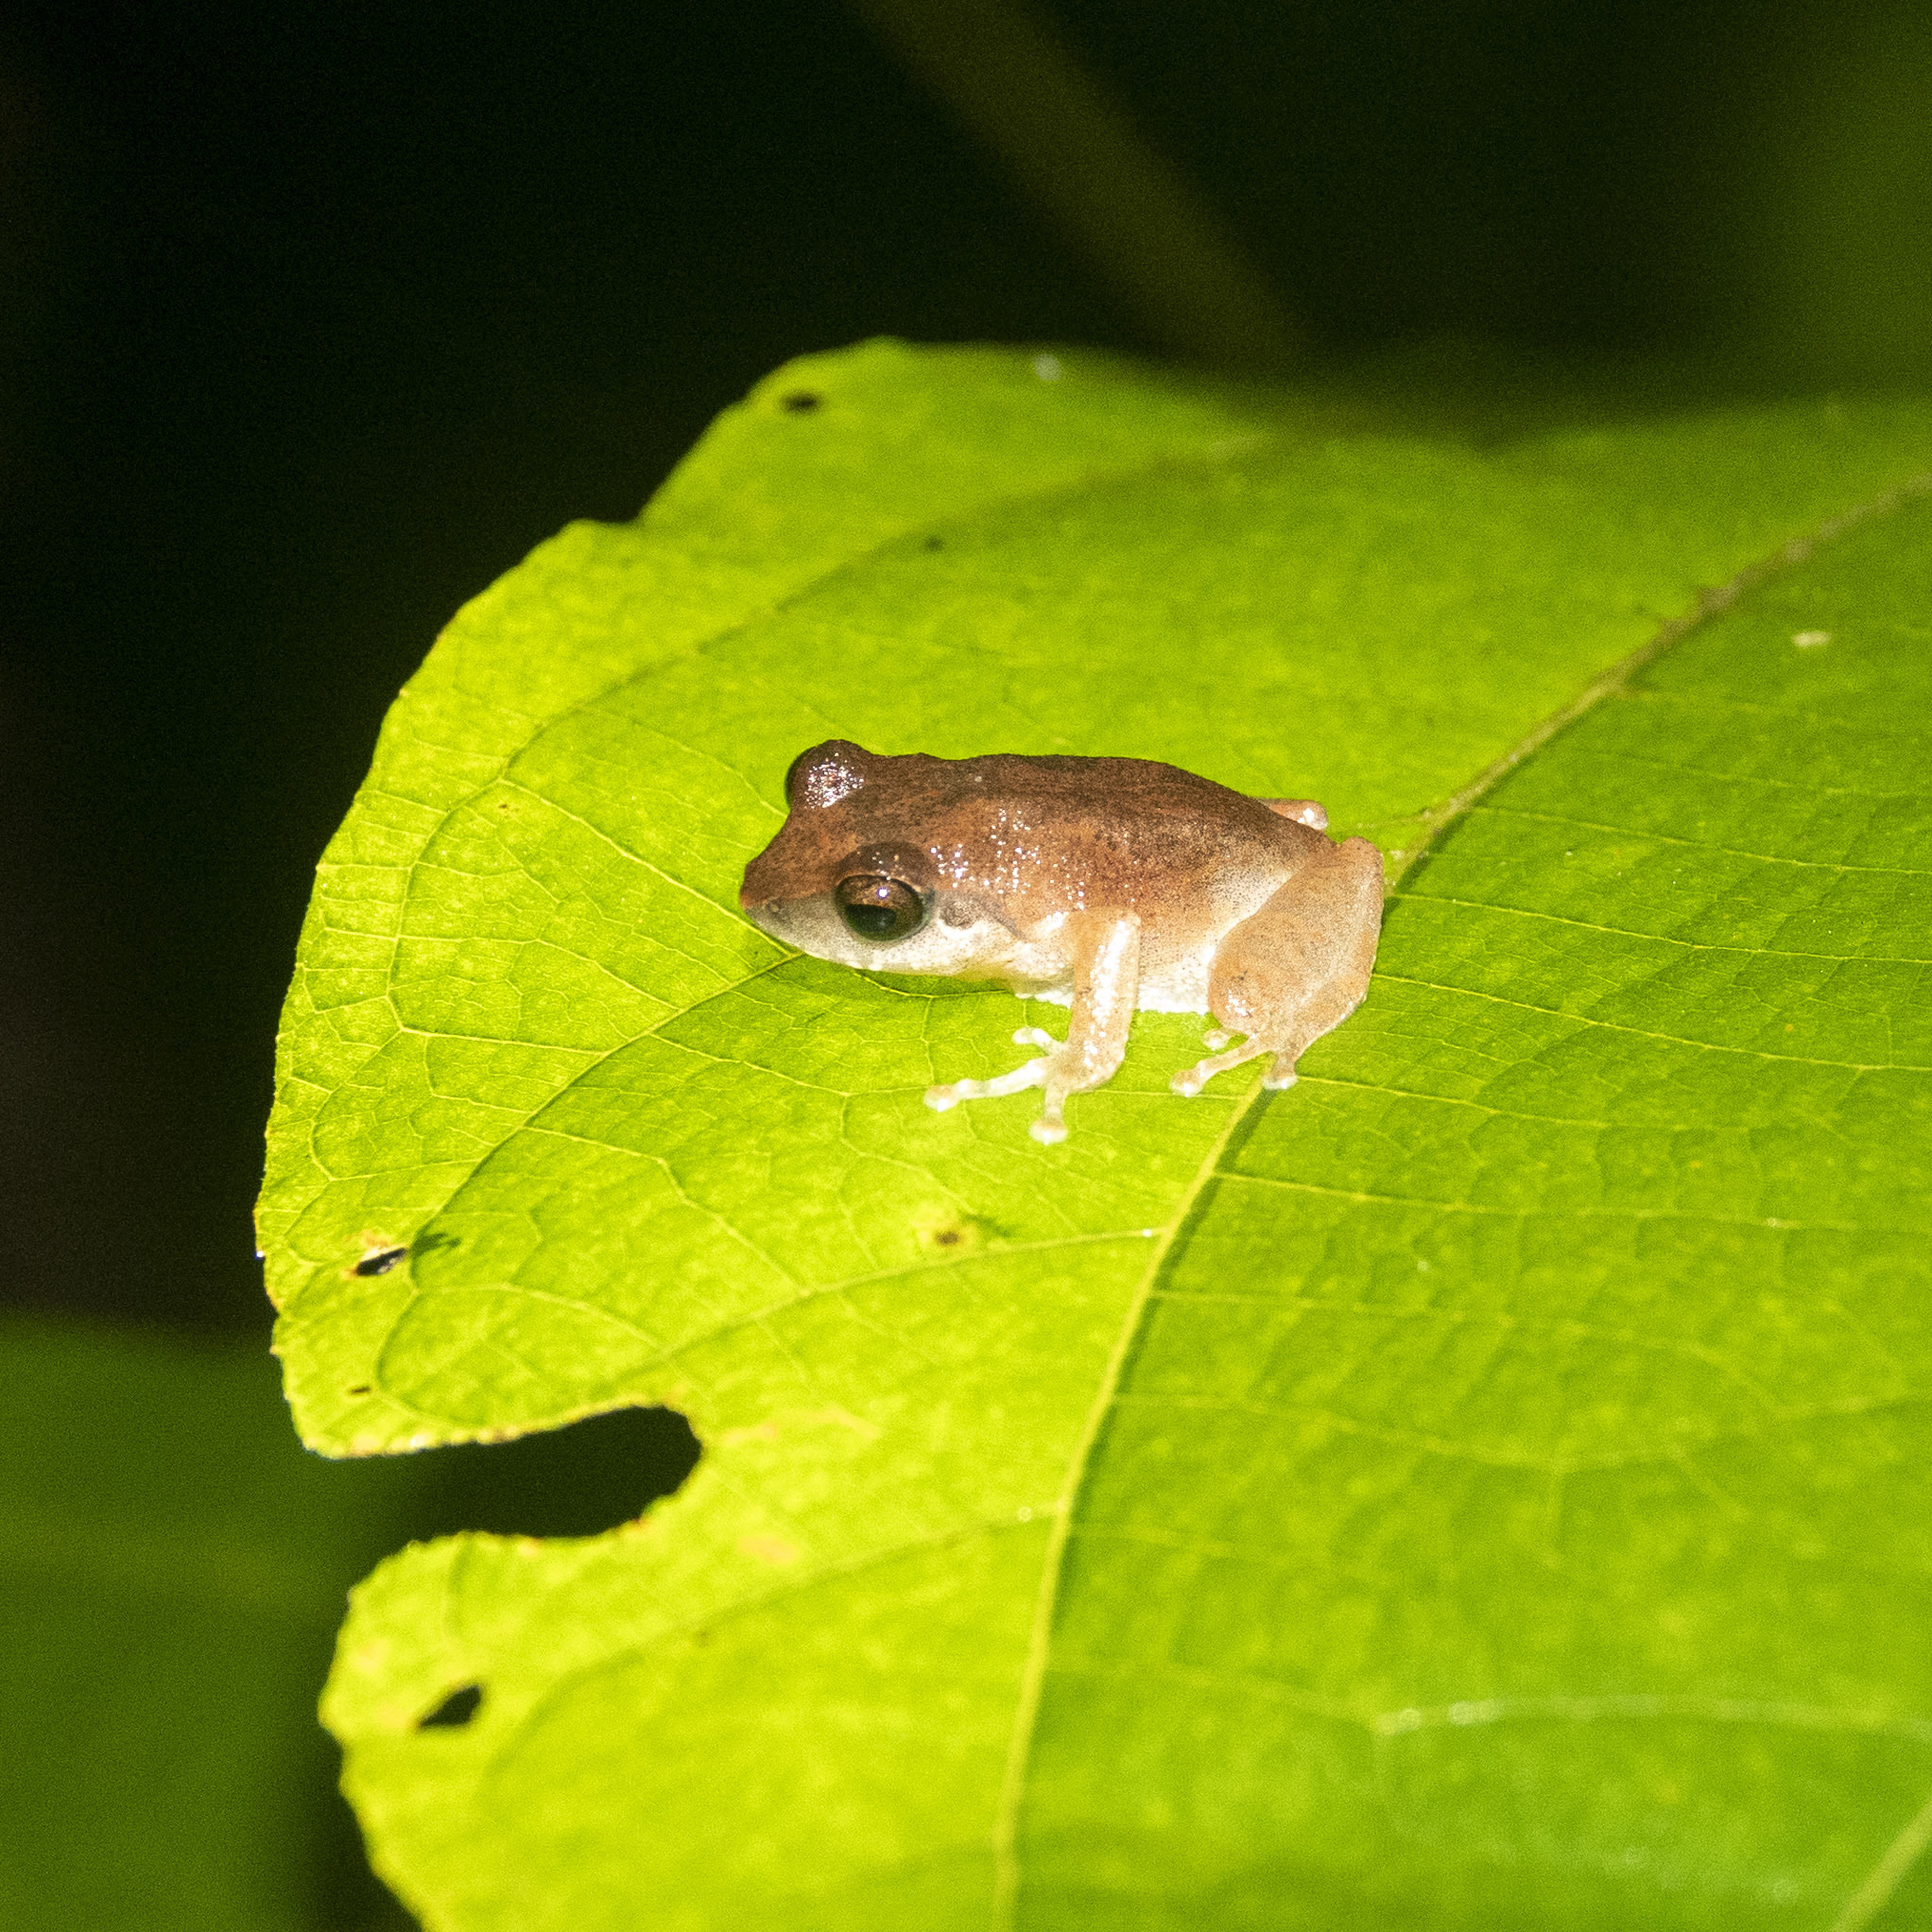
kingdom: Animalia
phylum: Chordata
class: Amphibia
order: Anura
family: Rhacophoridae
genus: Pseudophilautus
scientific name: Pseudophilautus kani
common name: Kani bush frog
